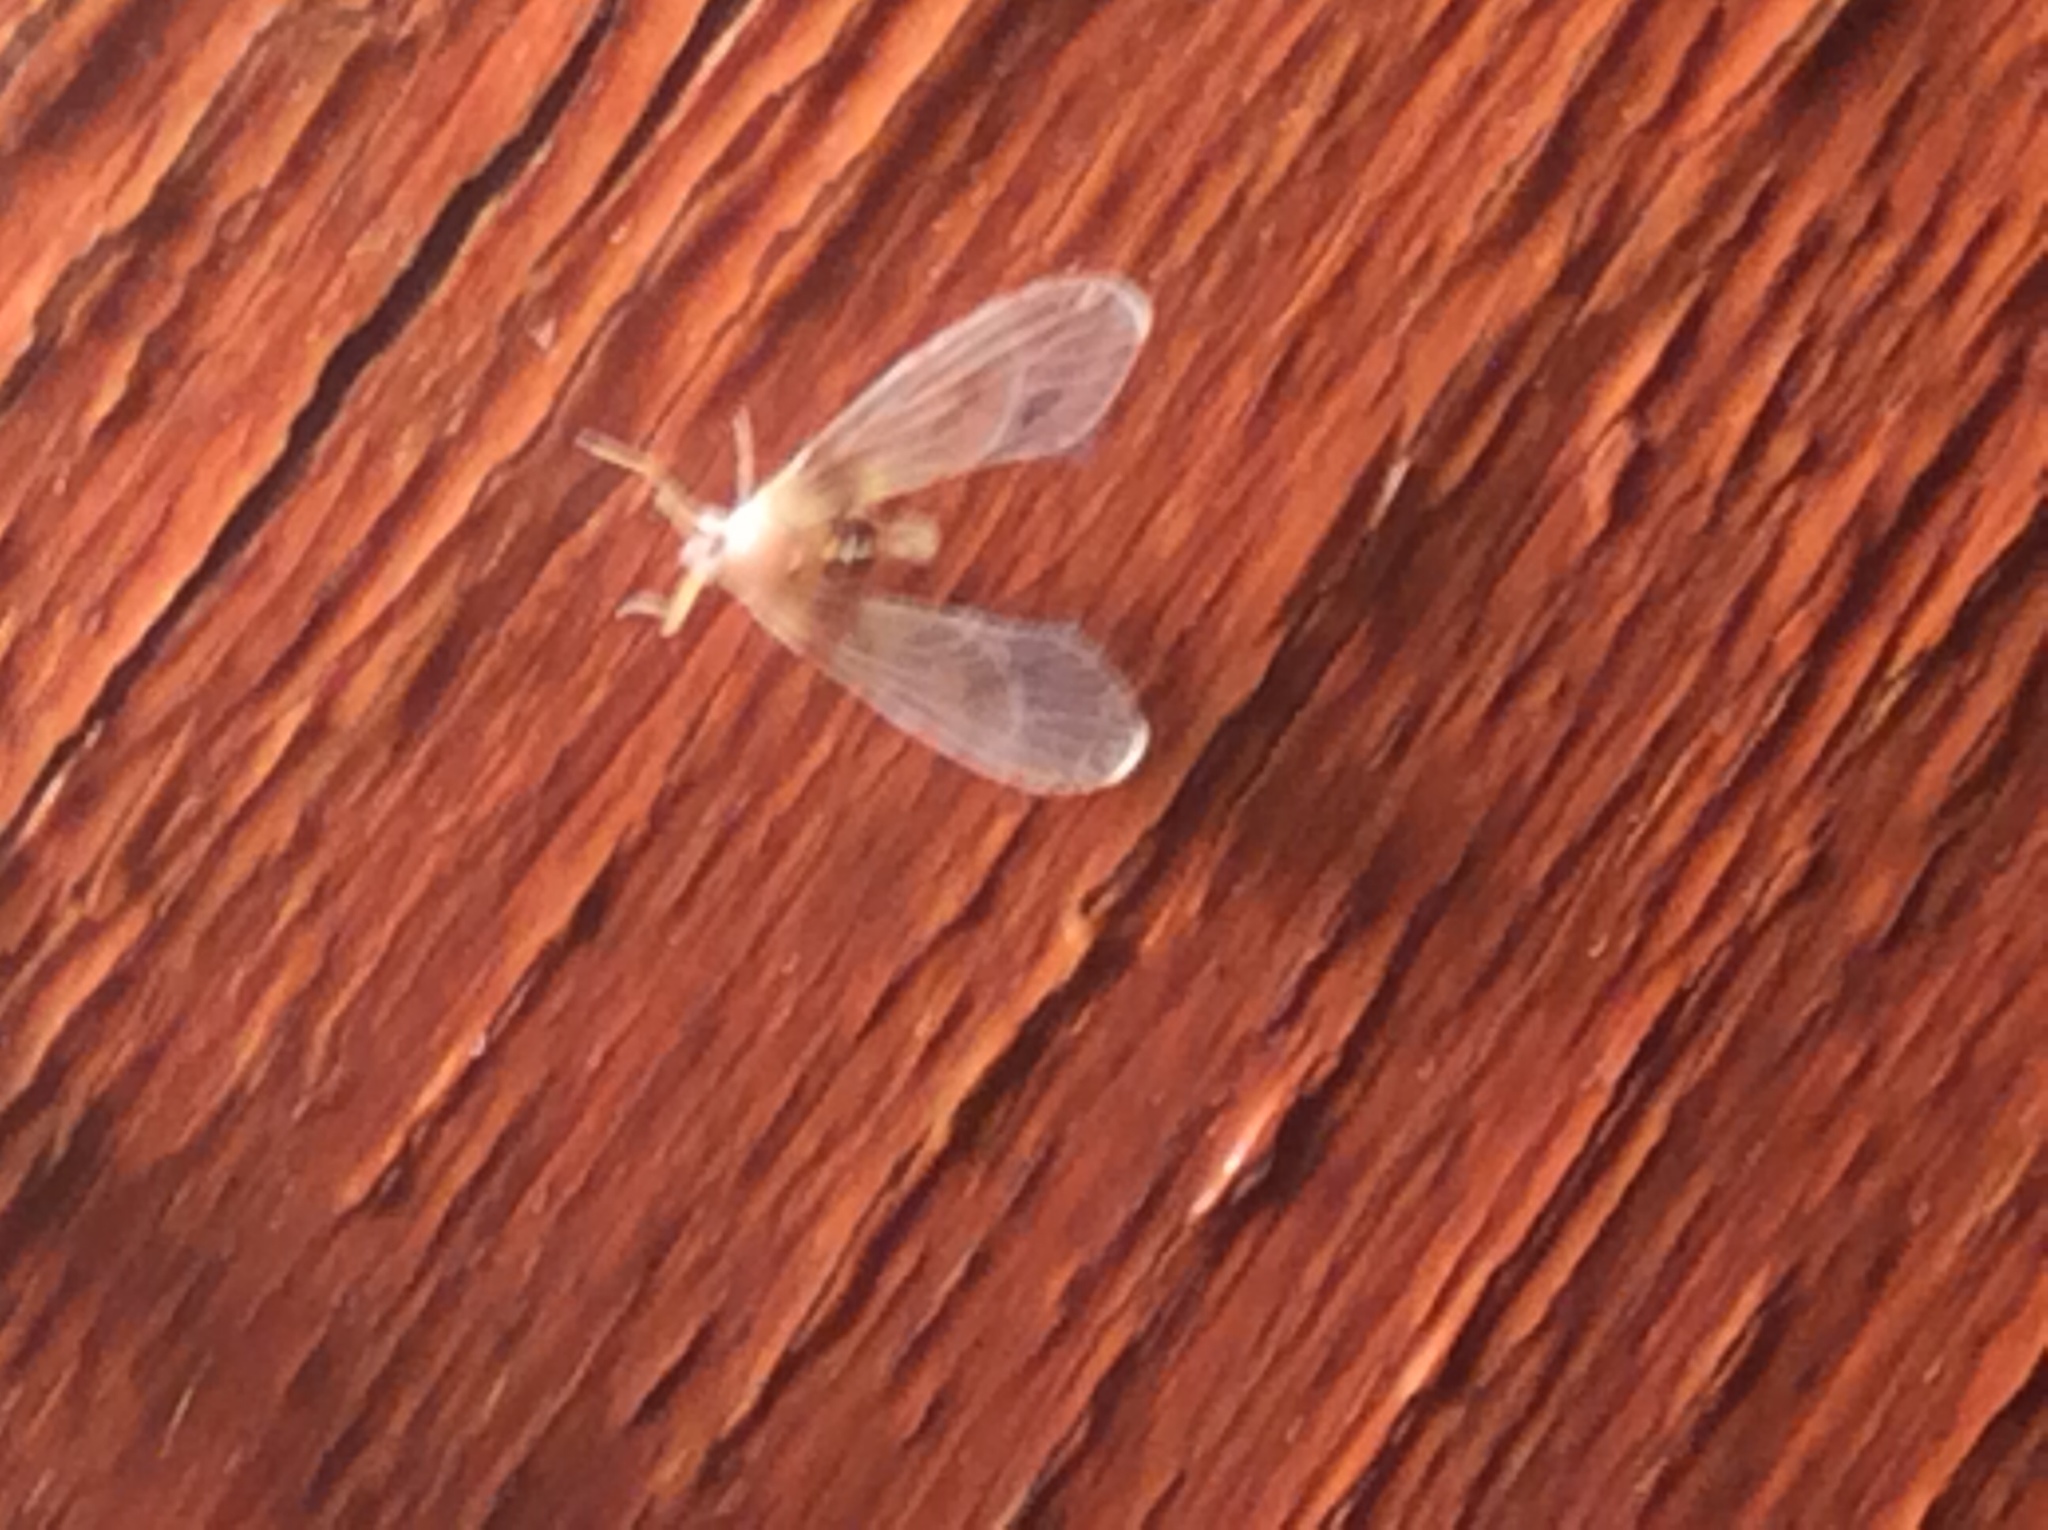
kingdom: Animalia
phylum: Arthropoda
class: Insecta
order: Hemiptera
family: Derbidae
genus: Anotia
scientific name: Anotia burnetii
